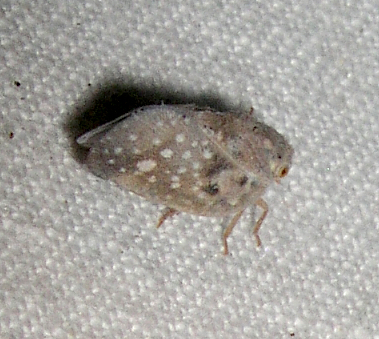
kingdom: Animalia
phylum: Arthropoda
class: Insecta
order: Hemiptera
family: Flatidae
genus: Metcalfa
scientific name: Metcalfa pruinosa
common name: Citrus flatid planthopper
